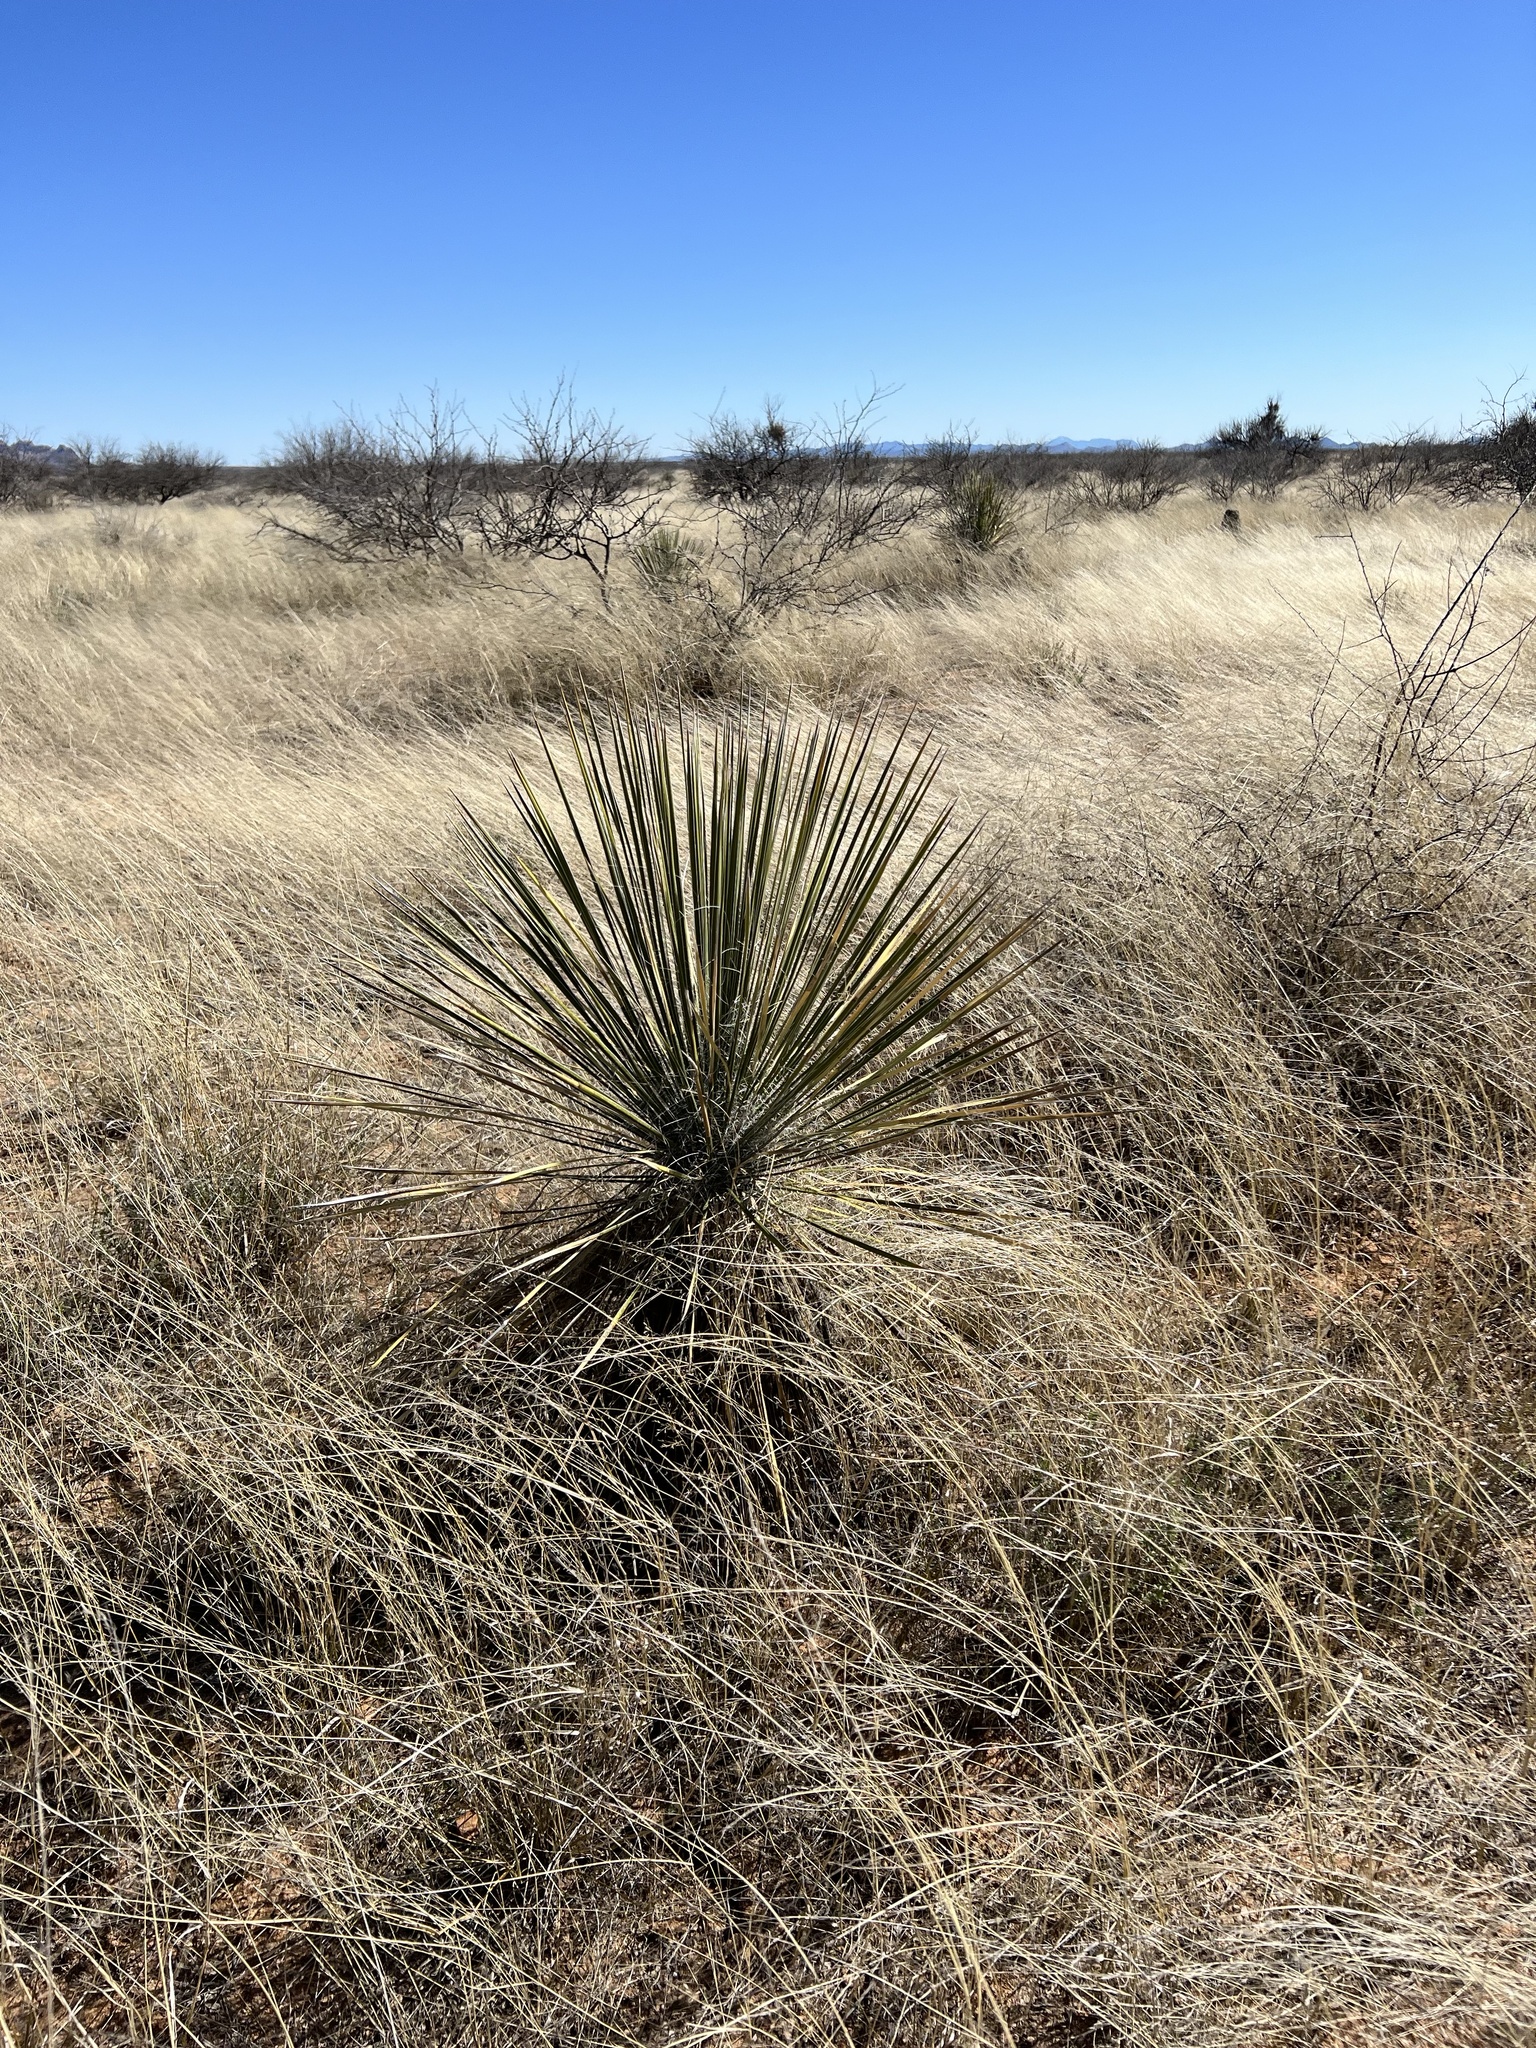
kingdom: Plantae
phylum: Tracheophyta
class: Liliopsida
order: Asparagales
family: Asparagaceae
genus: Yucca
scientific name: Yucca elata
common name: Palmella
